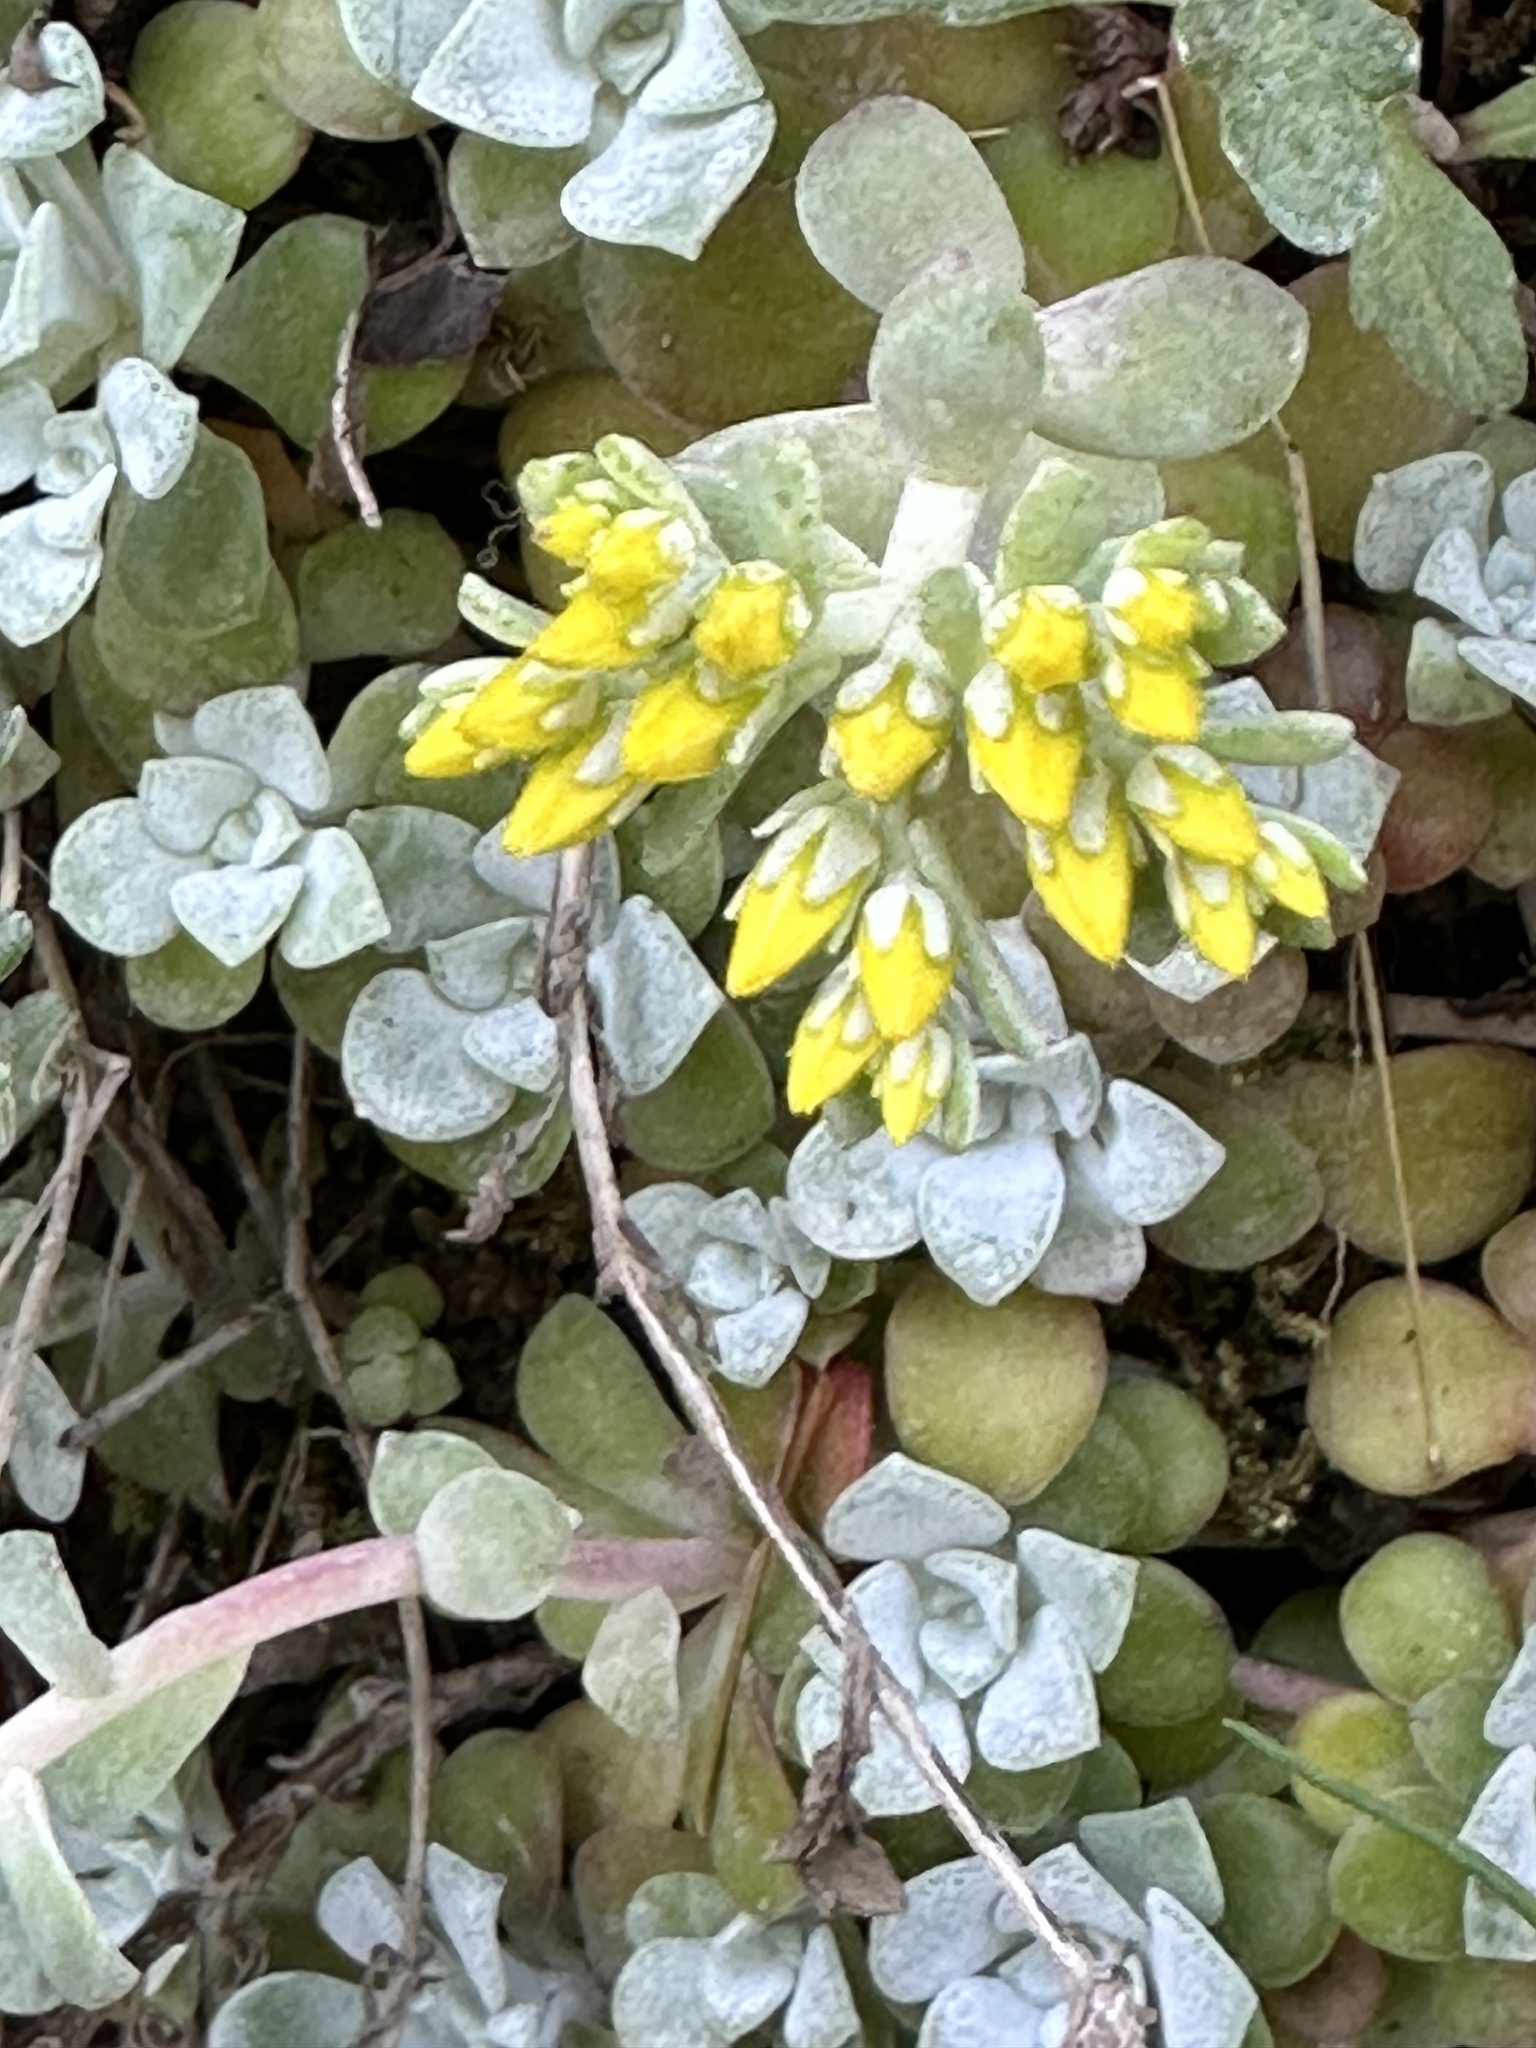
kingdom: Plantae
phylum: Tracheophyta
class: Magnoliopsida
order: Saxifragales
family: Crassulaceae
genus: Sedum
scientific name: Sedum spathulifolium
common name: Colorado stonecrop
